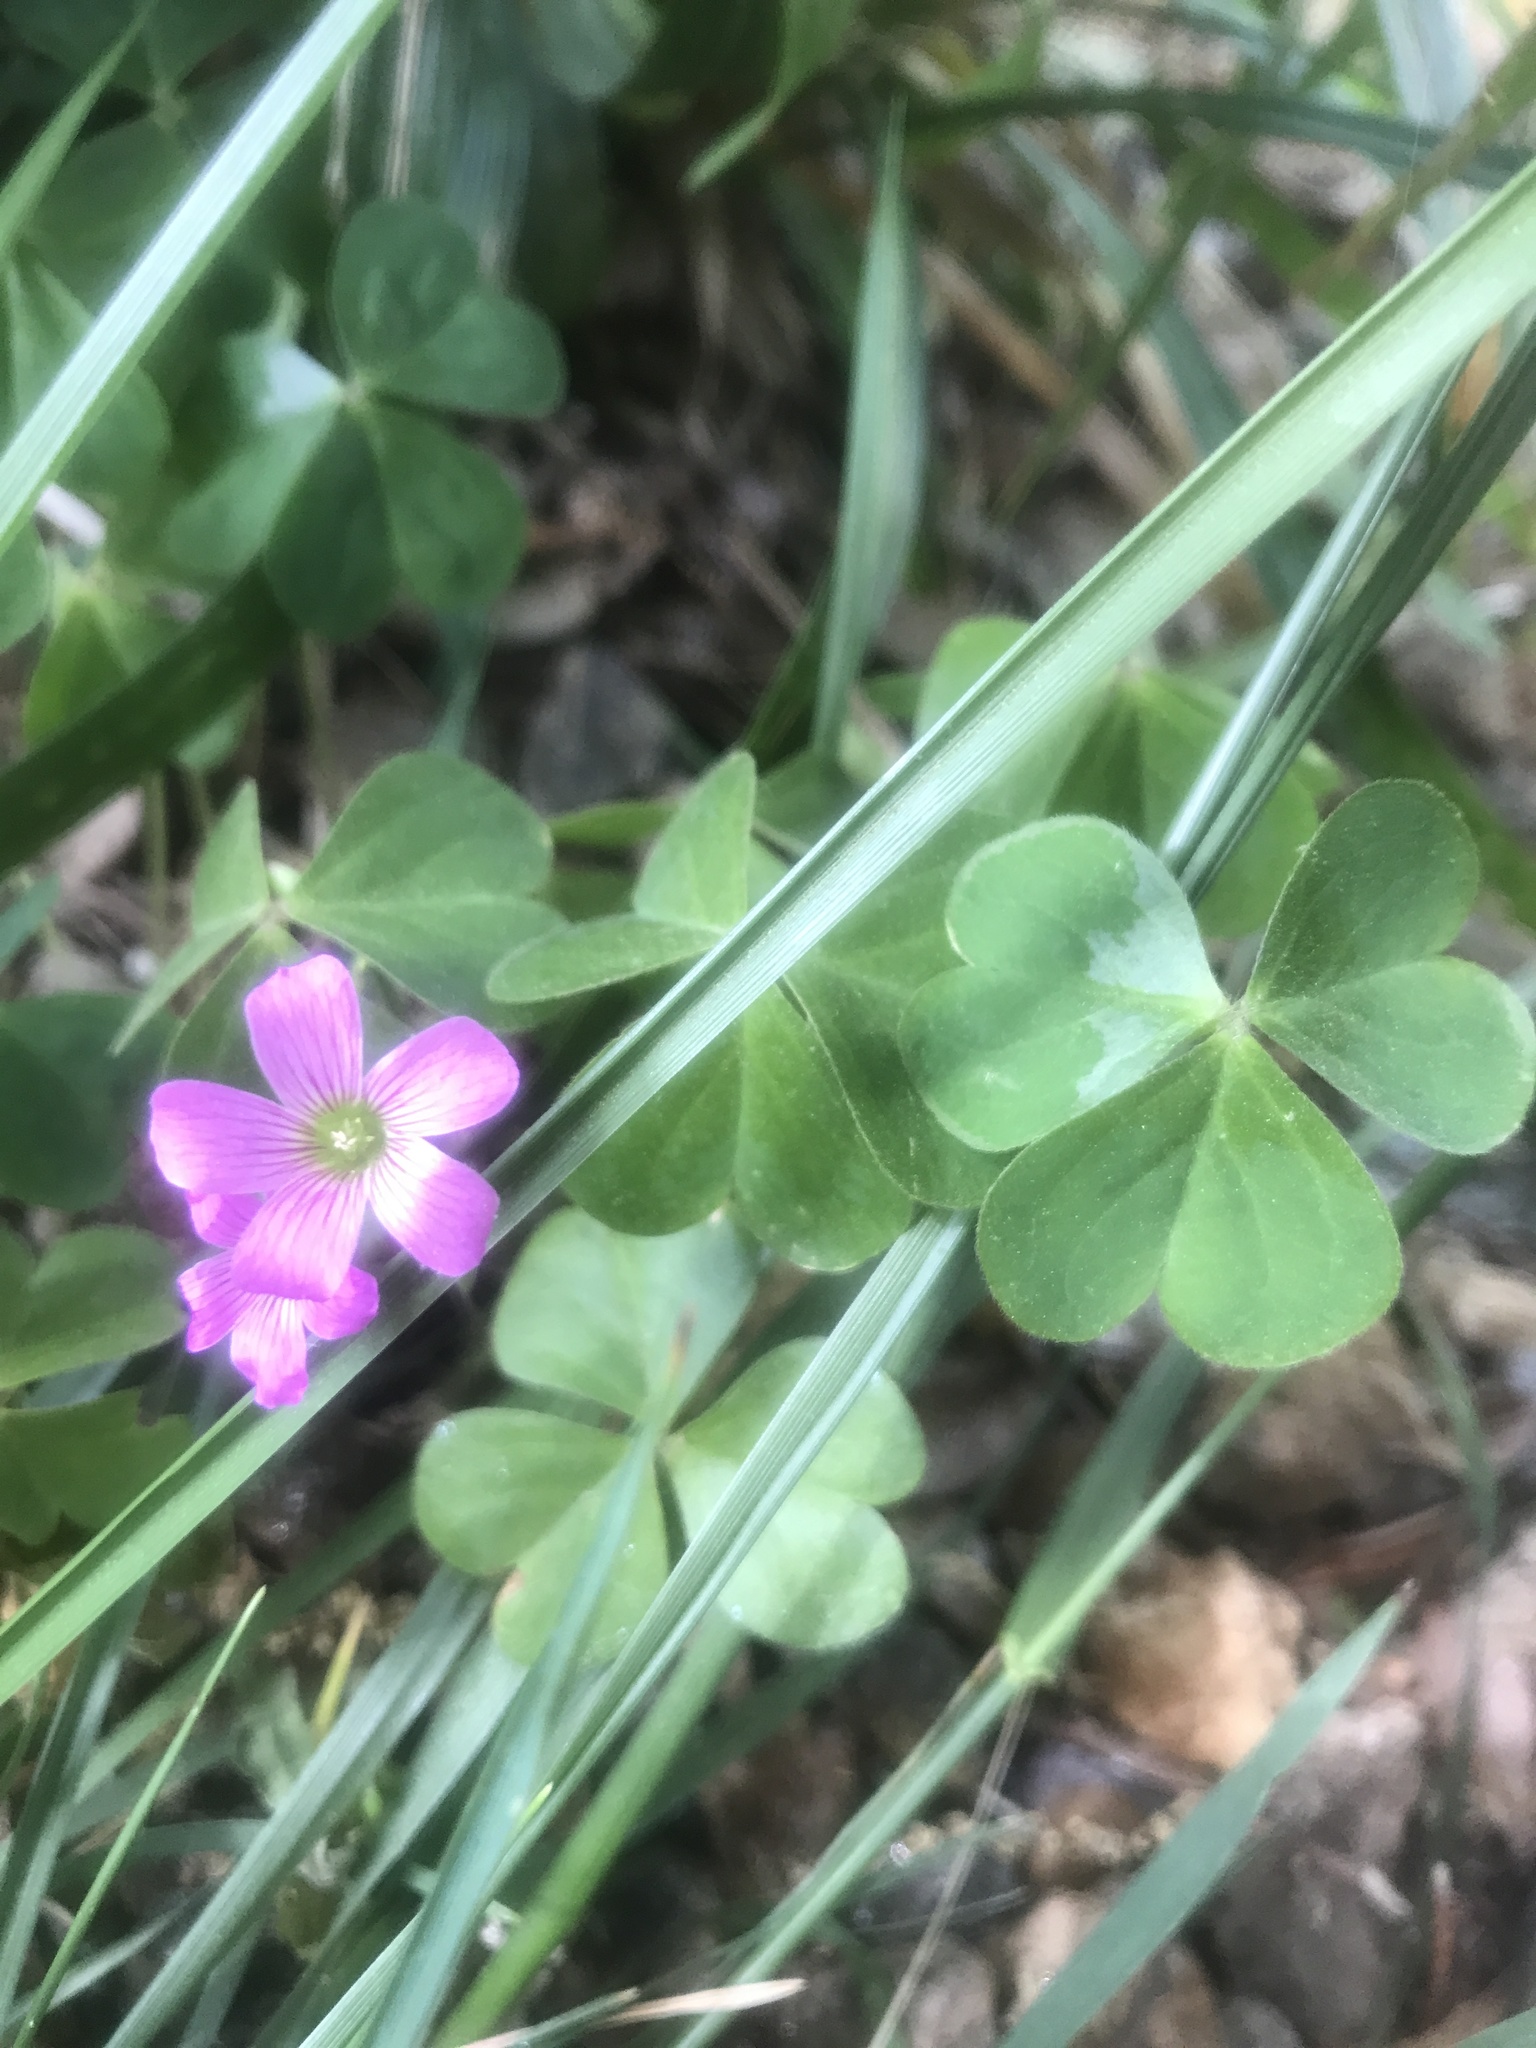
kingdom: Plantae
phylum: Tracheophyta
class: Magnoliopsida
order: Oxalidales
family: Oxalidaceae
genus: Oxalis
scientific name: Oxalis debilis
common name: Large-flowered pink-sorrel
